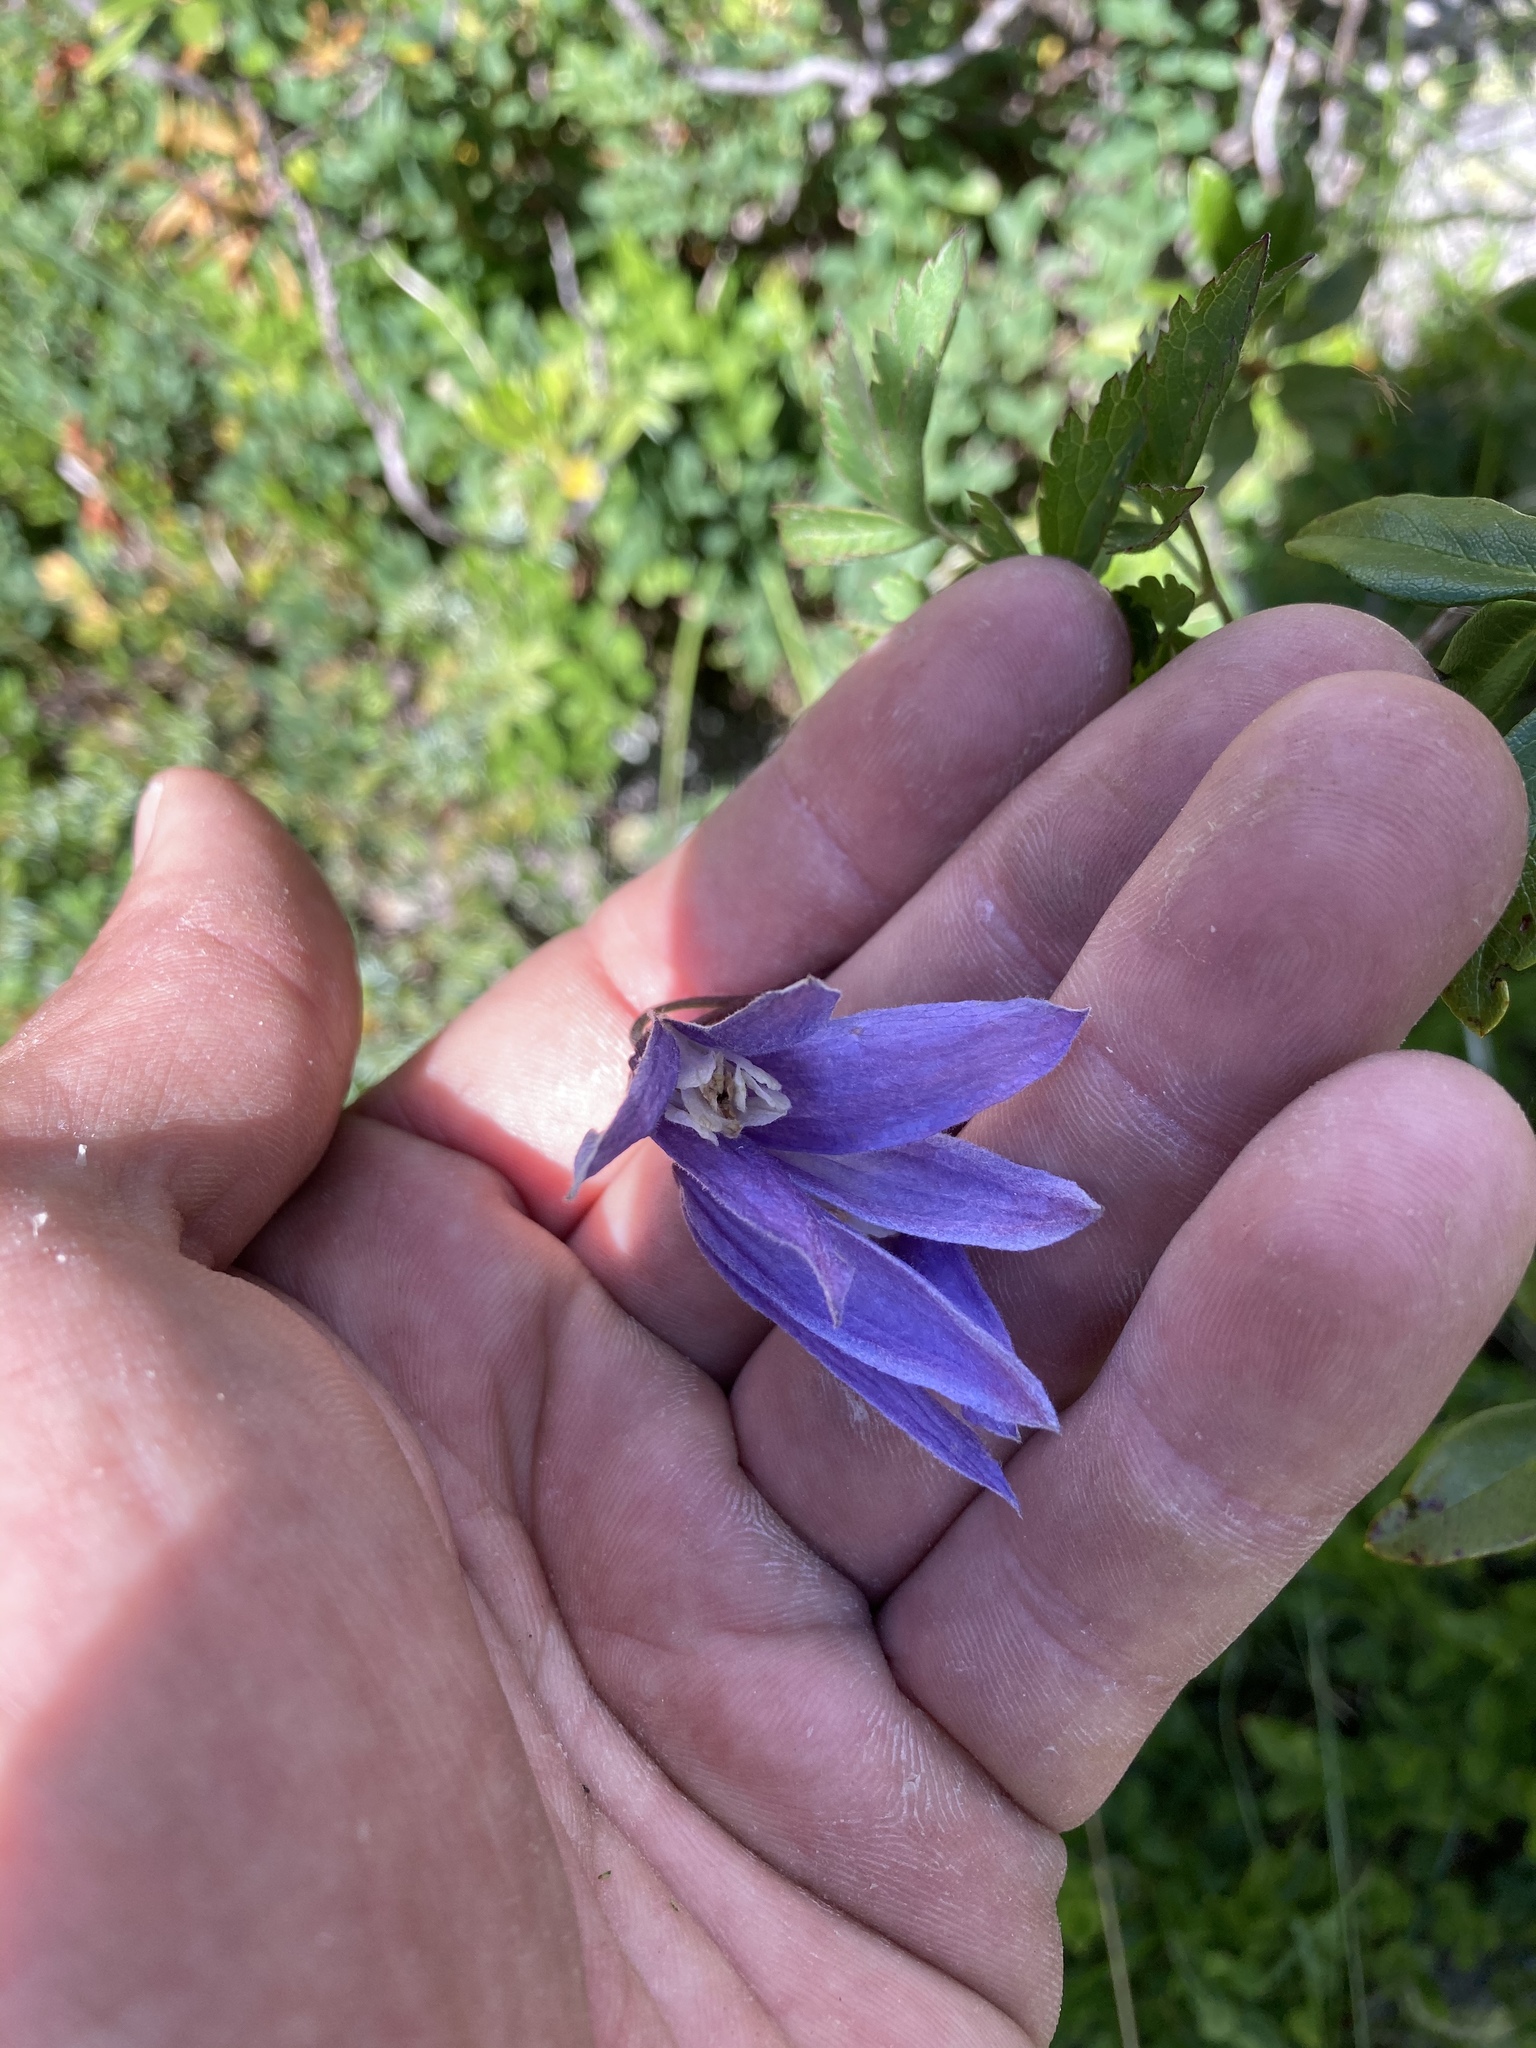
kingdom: Plantae
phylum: Tracheophyta
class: Magnoliopsida
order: Ranunculales
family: Ranunculaceae
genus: Clematis
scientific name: Clematis alpina
